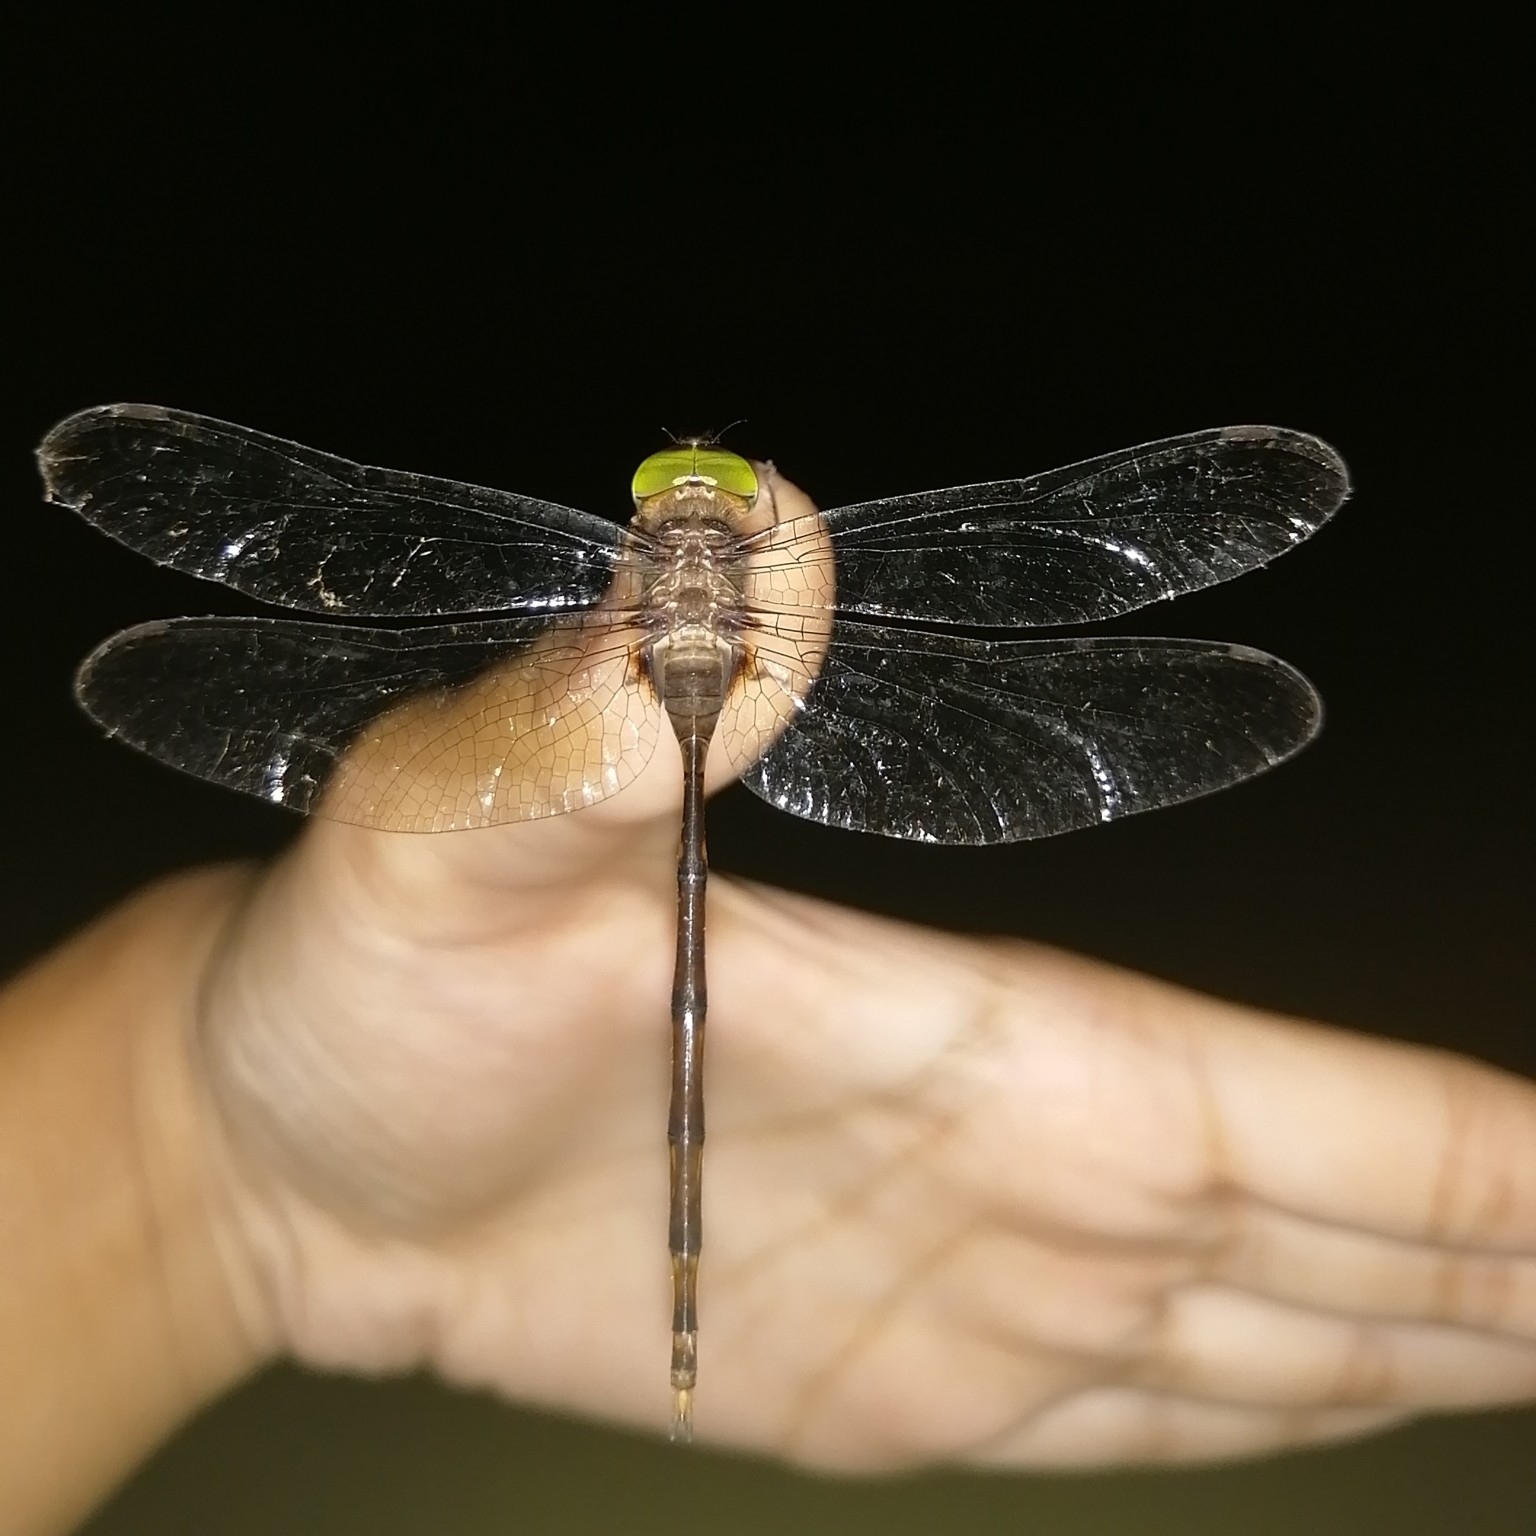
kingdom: Animalia
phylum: Arthropoda
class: Insecta
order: Odonata
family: Libellulidae
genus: Zyxomma
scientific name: Zyxomma petiolatum
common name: Dingy dusk-darter
